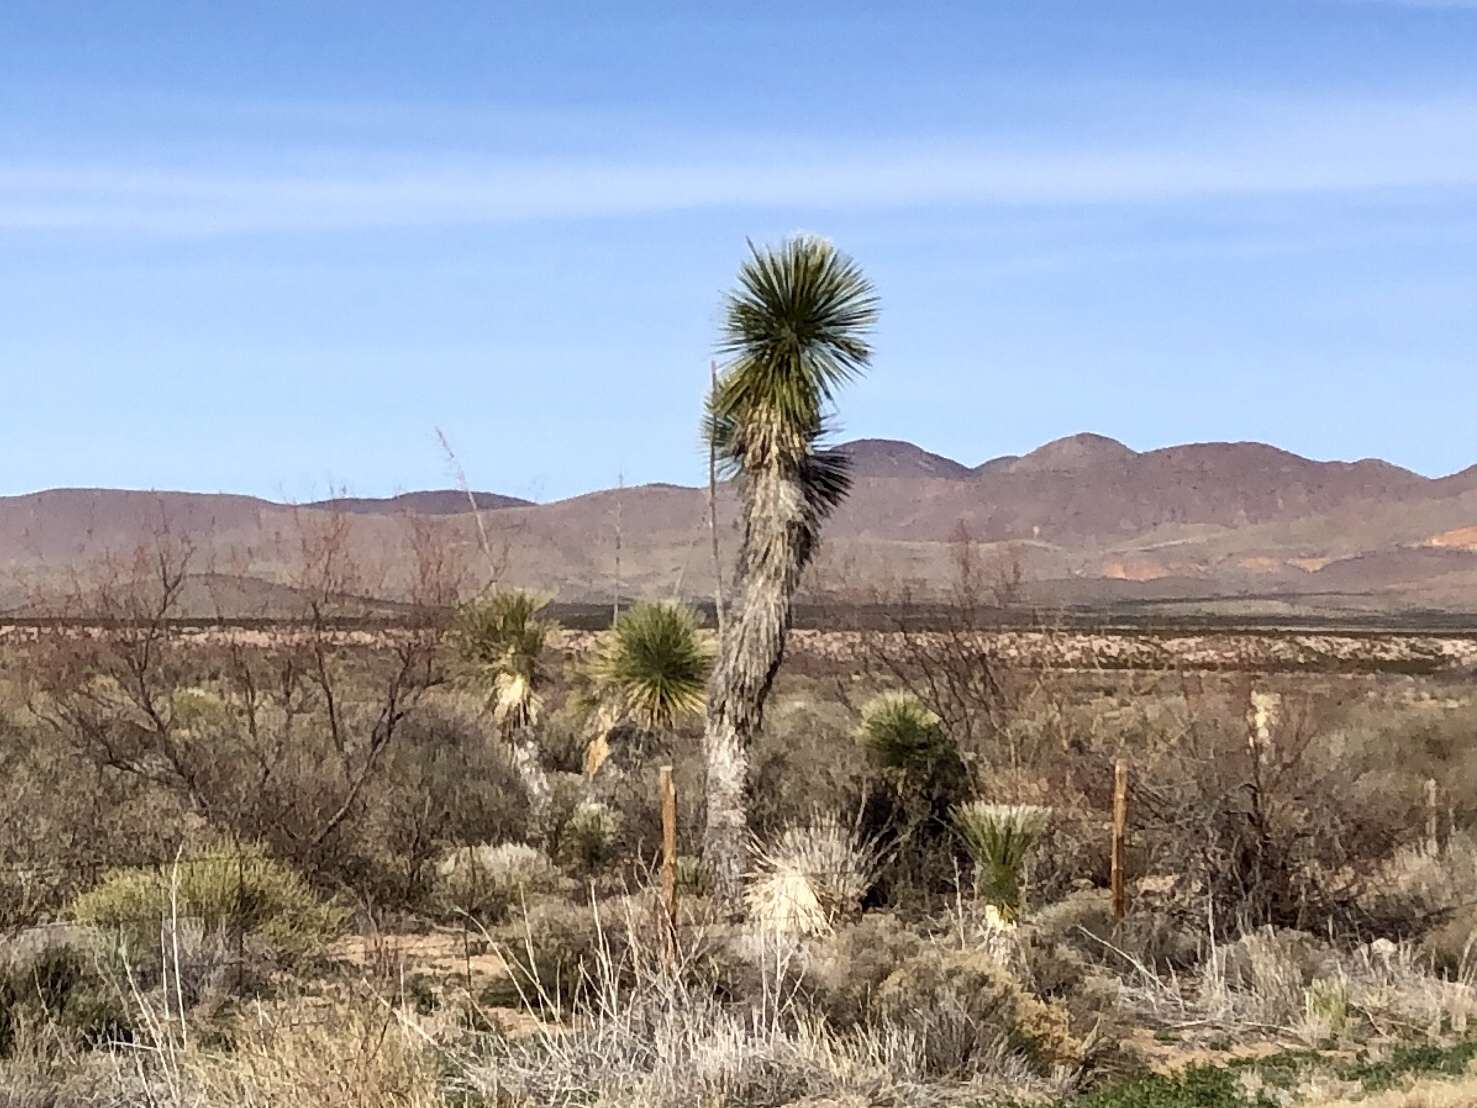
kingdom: Plantae
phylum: Tracheophyta
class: Liliopsida
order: Asparagales
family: Asparagaceae
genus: Yucca
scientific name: Yucca elata
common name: Palmella
